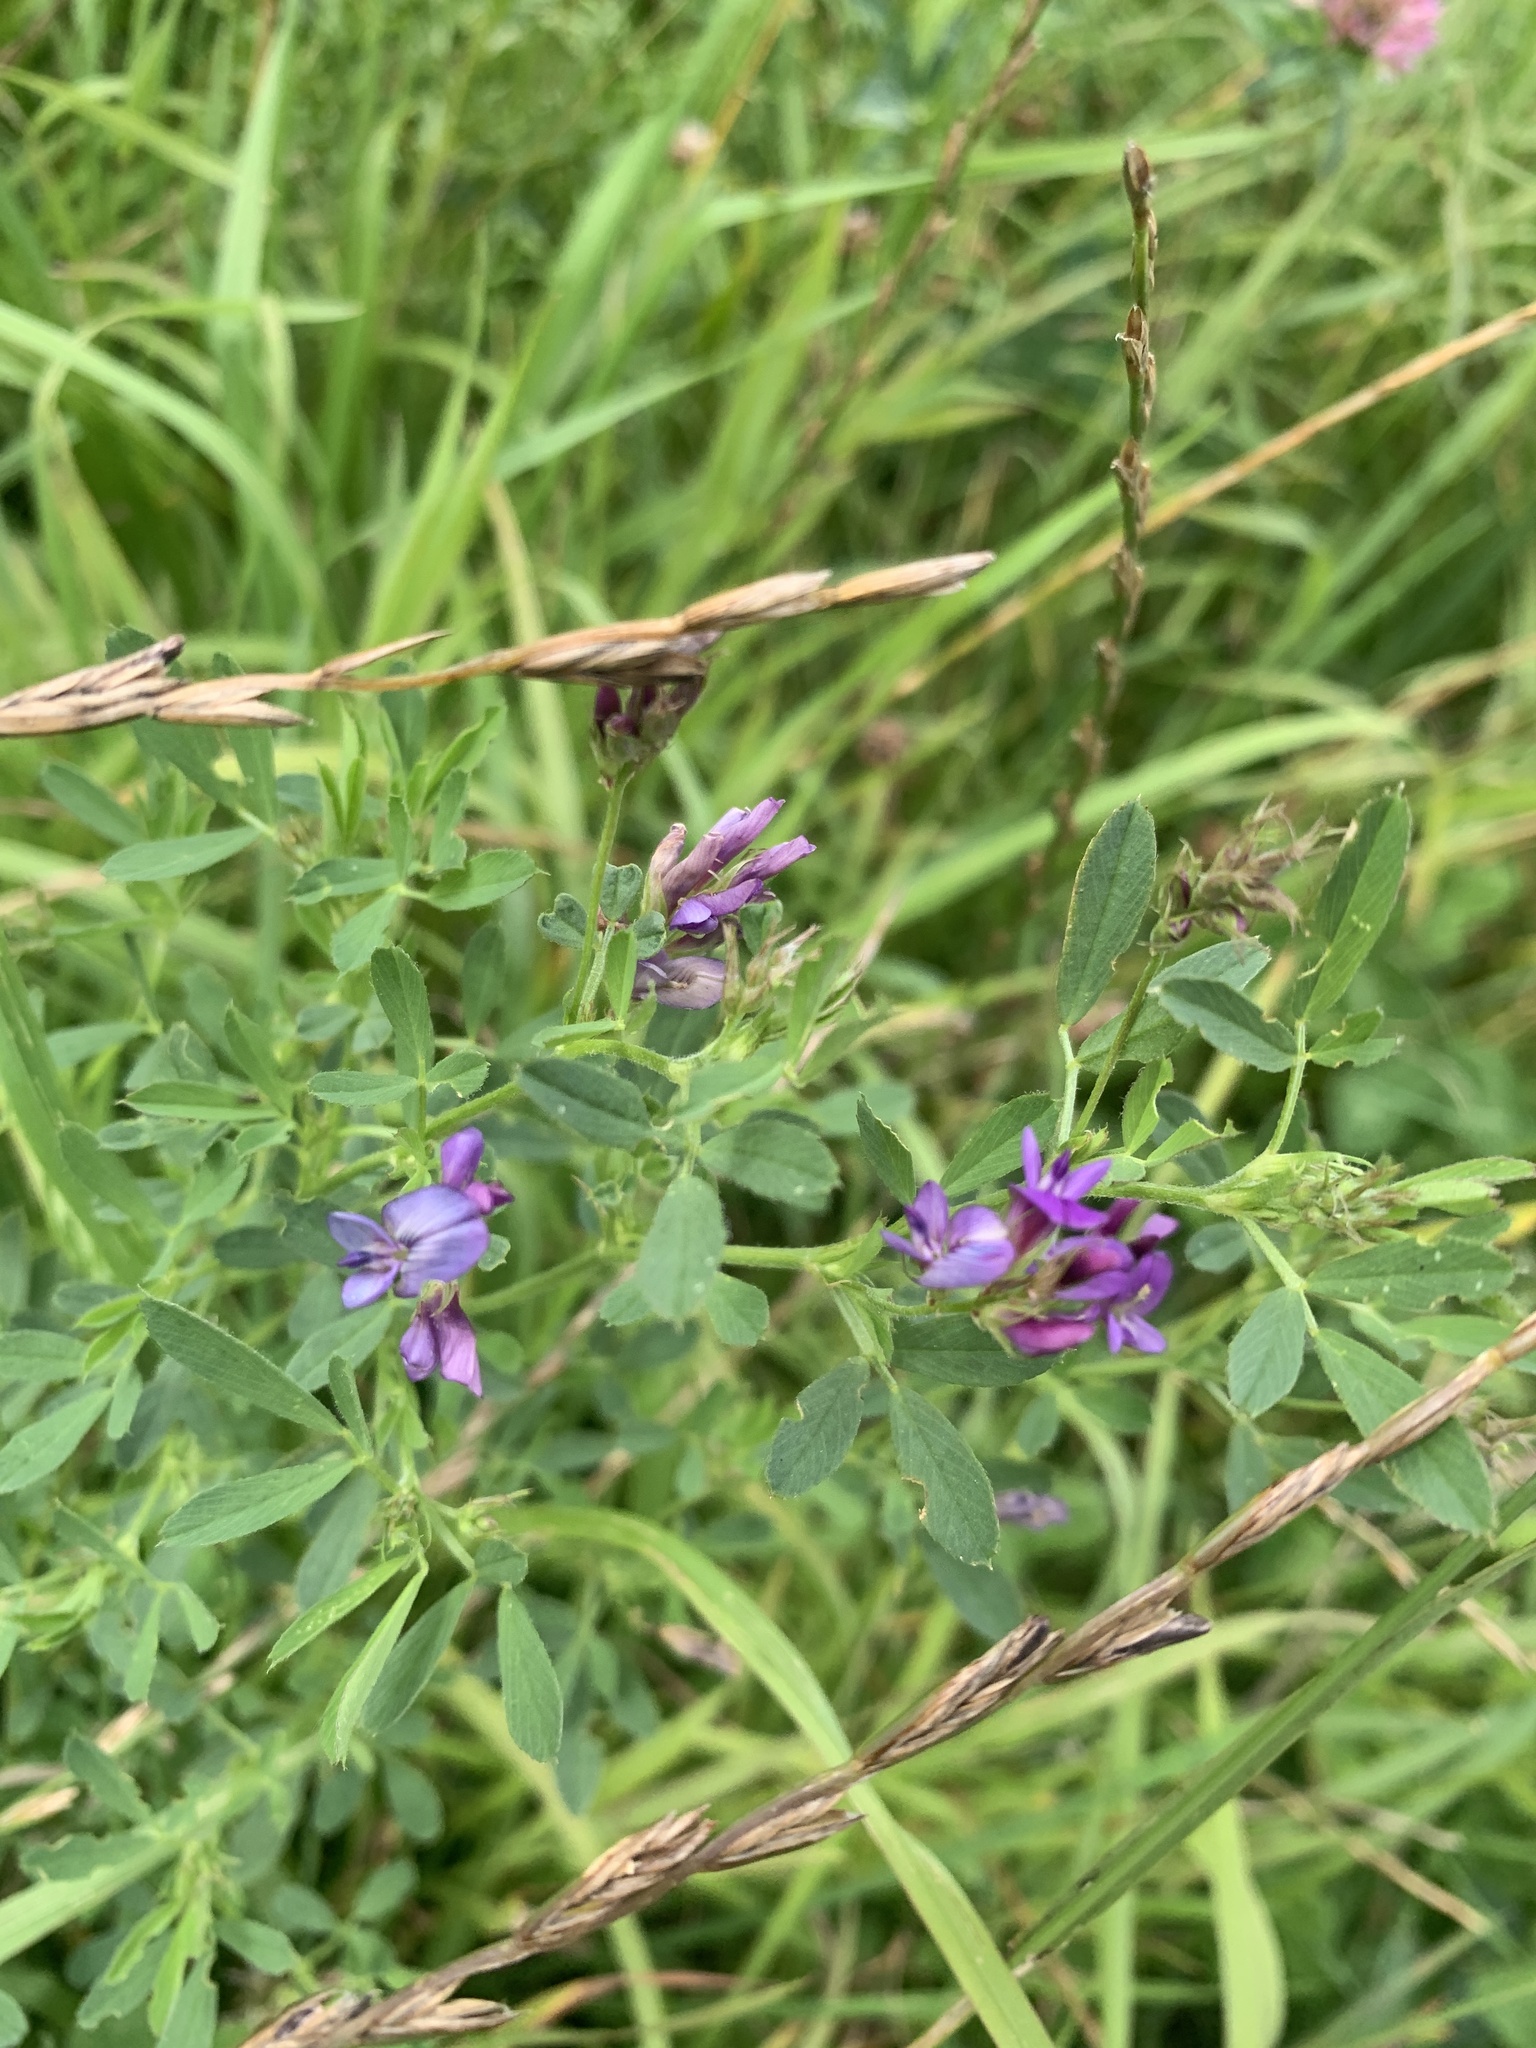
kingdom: Plantae
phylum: Tracheophyta
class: Magnoliopsida
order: Fabales
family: Fabaceae
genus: Medicago
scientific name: Medicago sativa
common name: Alfalfa
